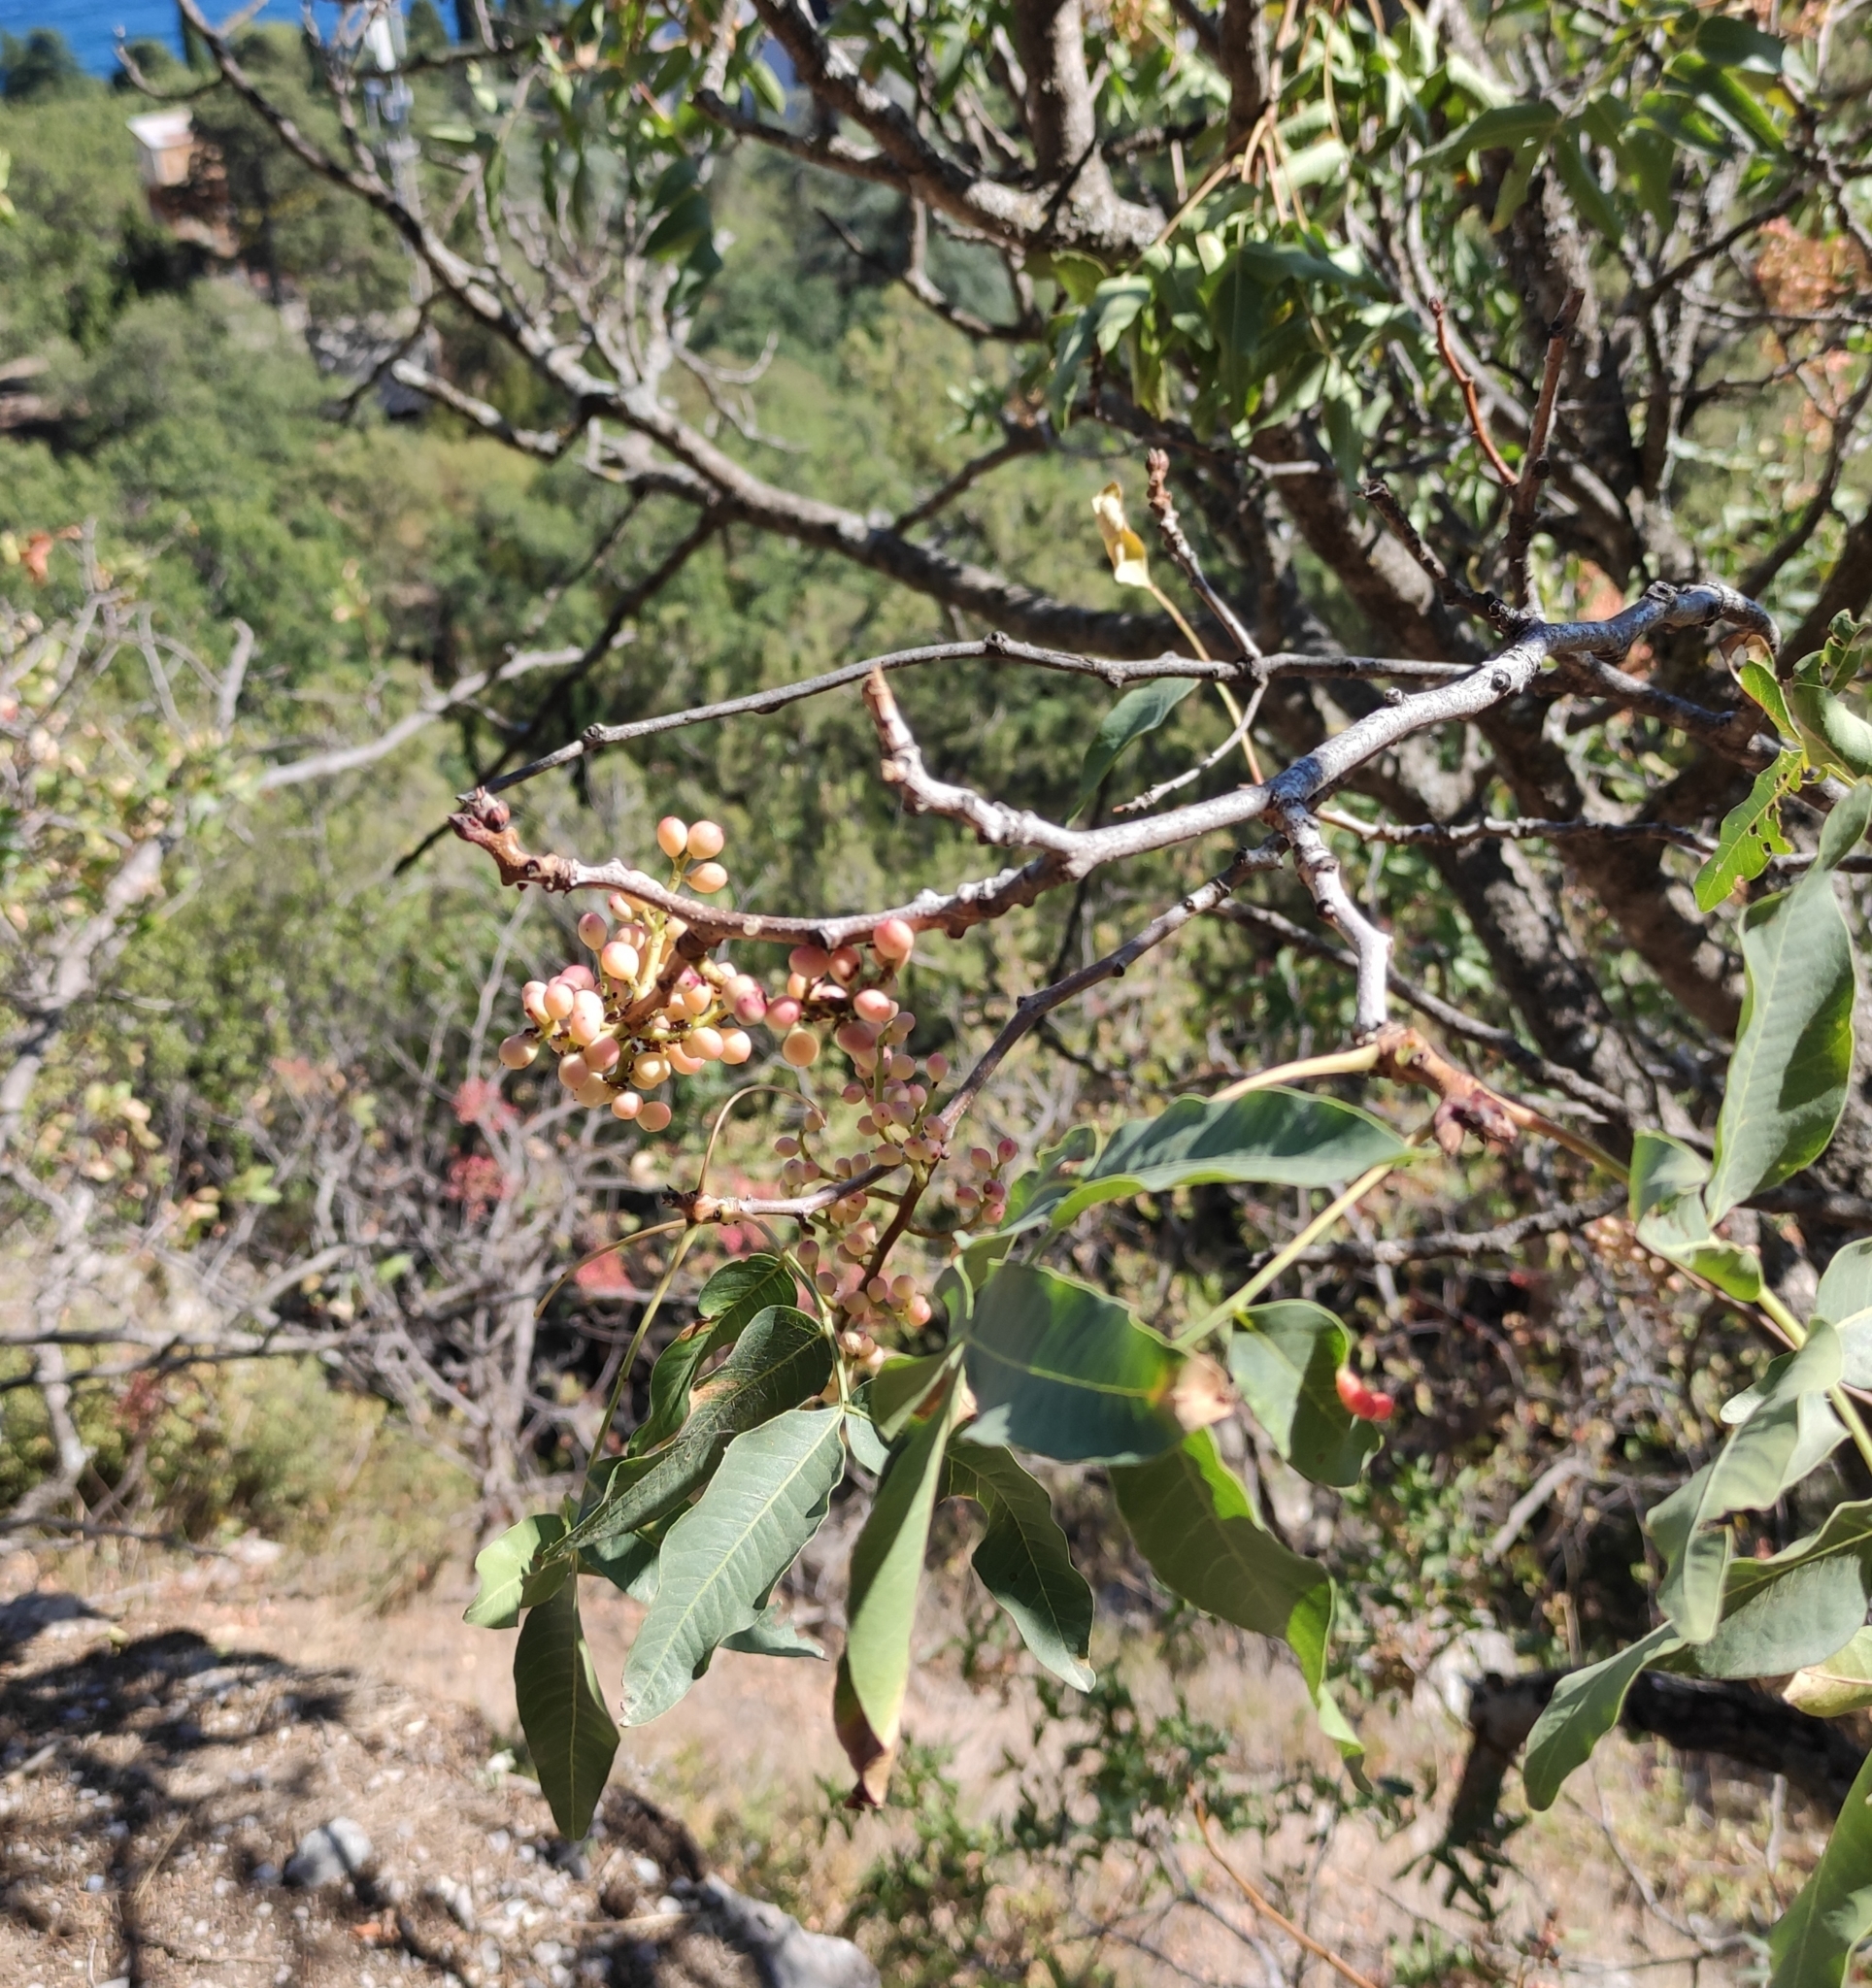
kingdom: Plantae
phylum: Tracheophyta
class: Magnoliopsida
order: Sapindales
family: Anacardiaceae
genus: Pistacia
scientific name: Pistacia atlantica
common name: Mt. atlas mastic tree
